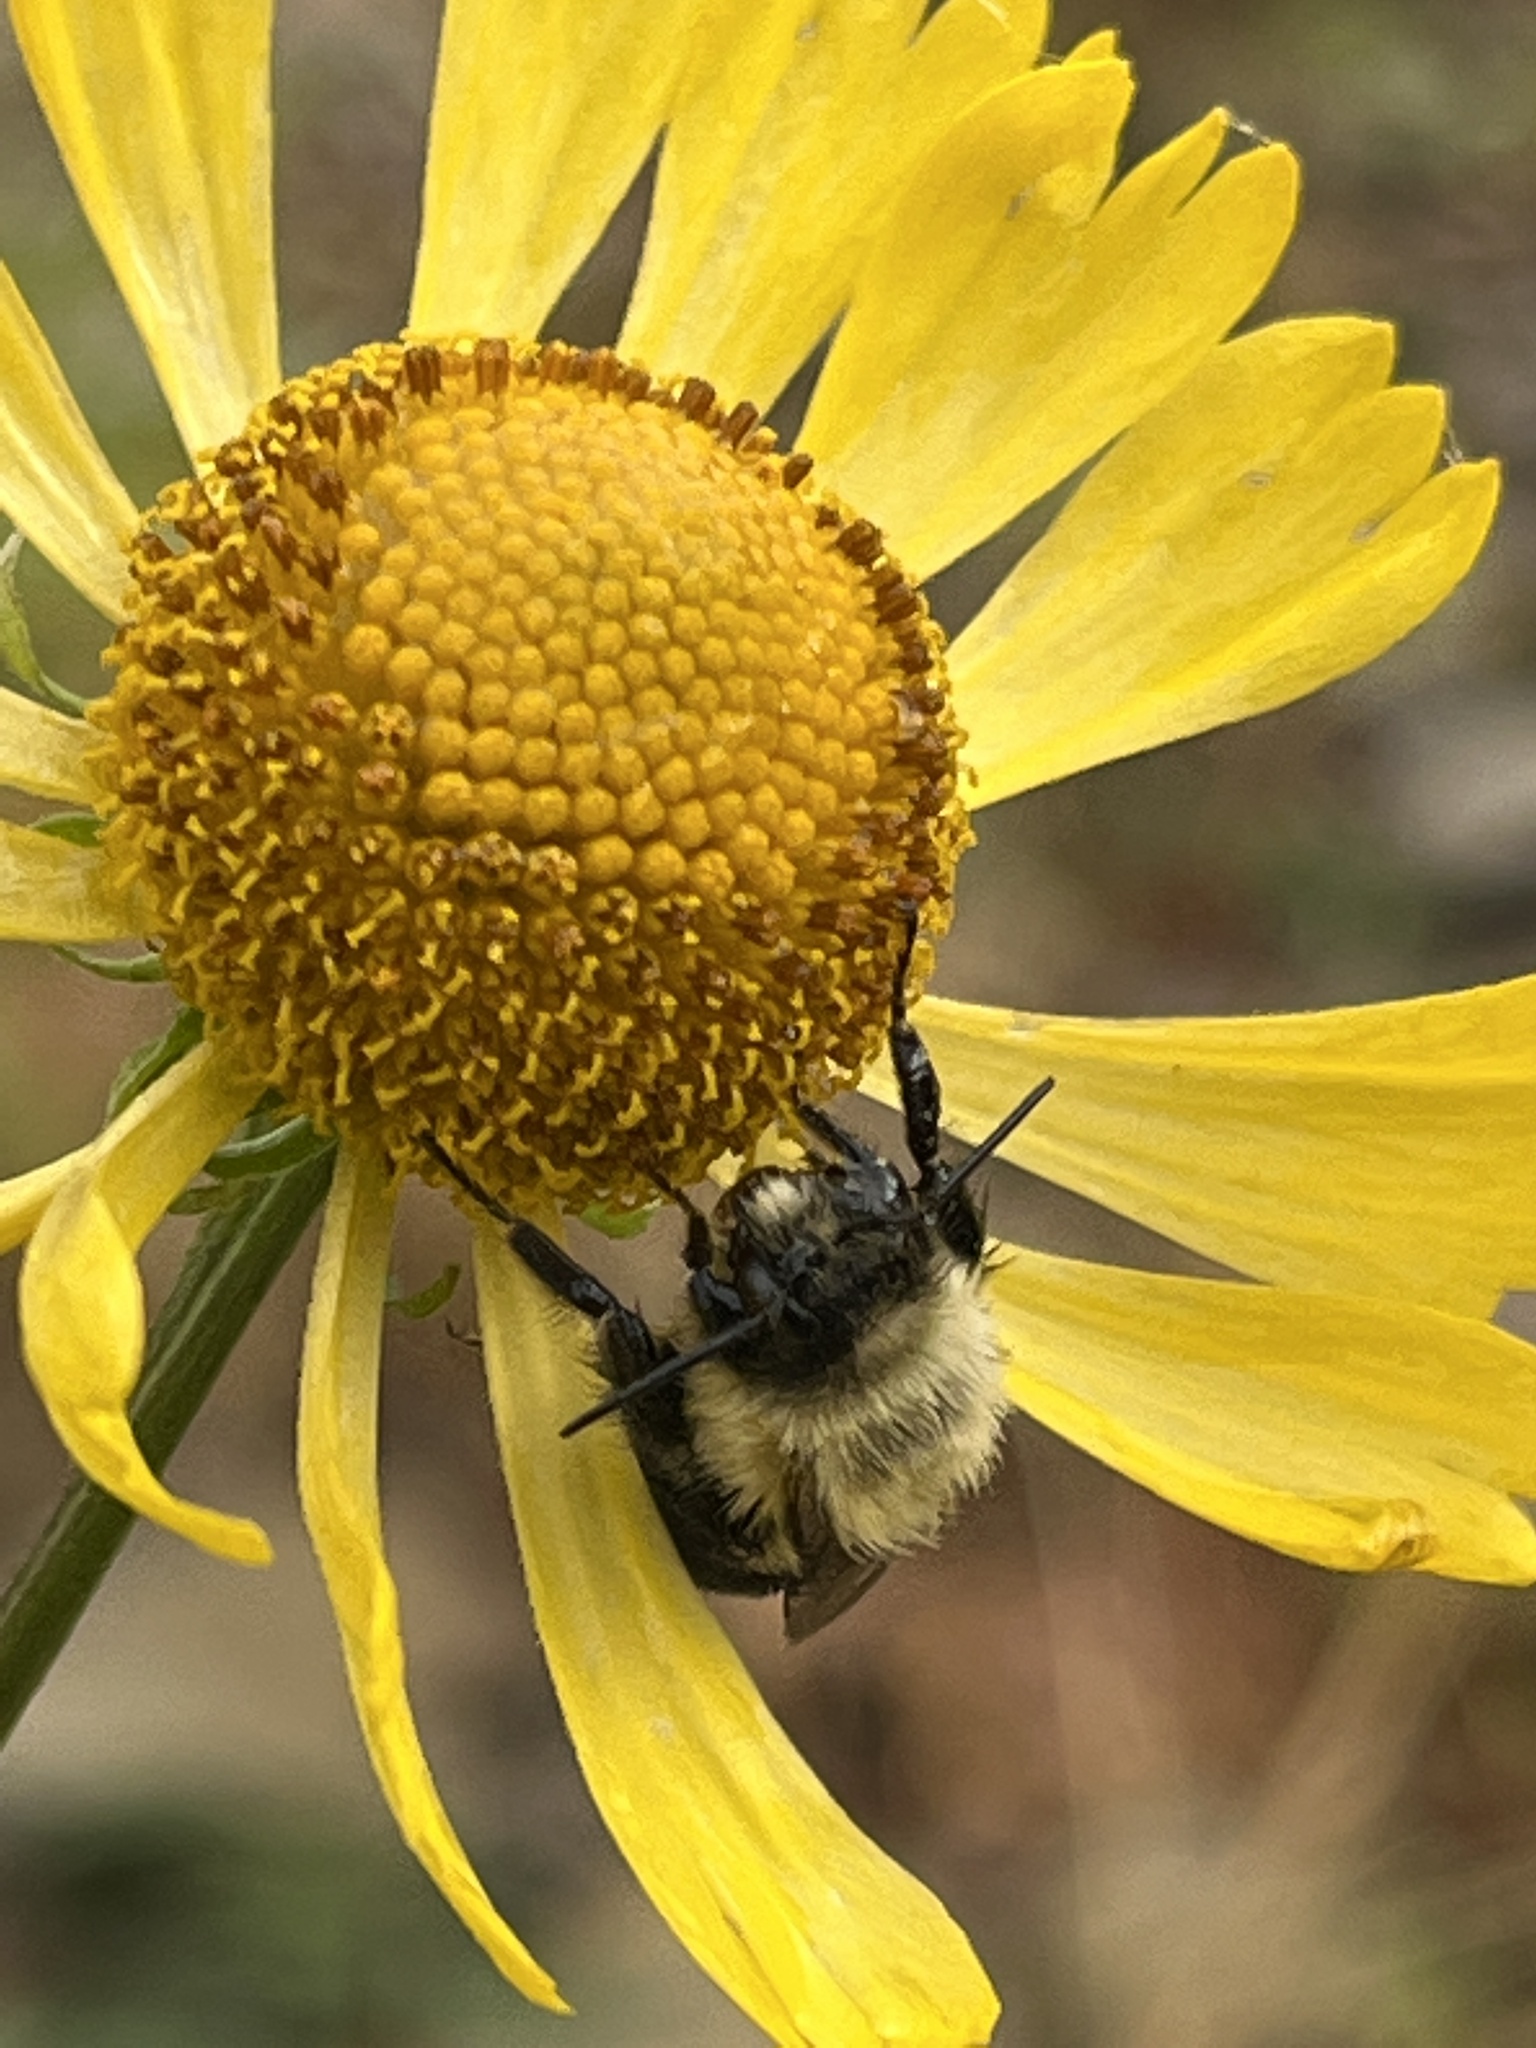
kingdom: Animalia
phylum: Arthropoda
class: Insecta
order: Hymenoptera
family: Apidae
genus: Bombus
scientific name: Bombus impatiens
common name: Common eastern bumble bee
